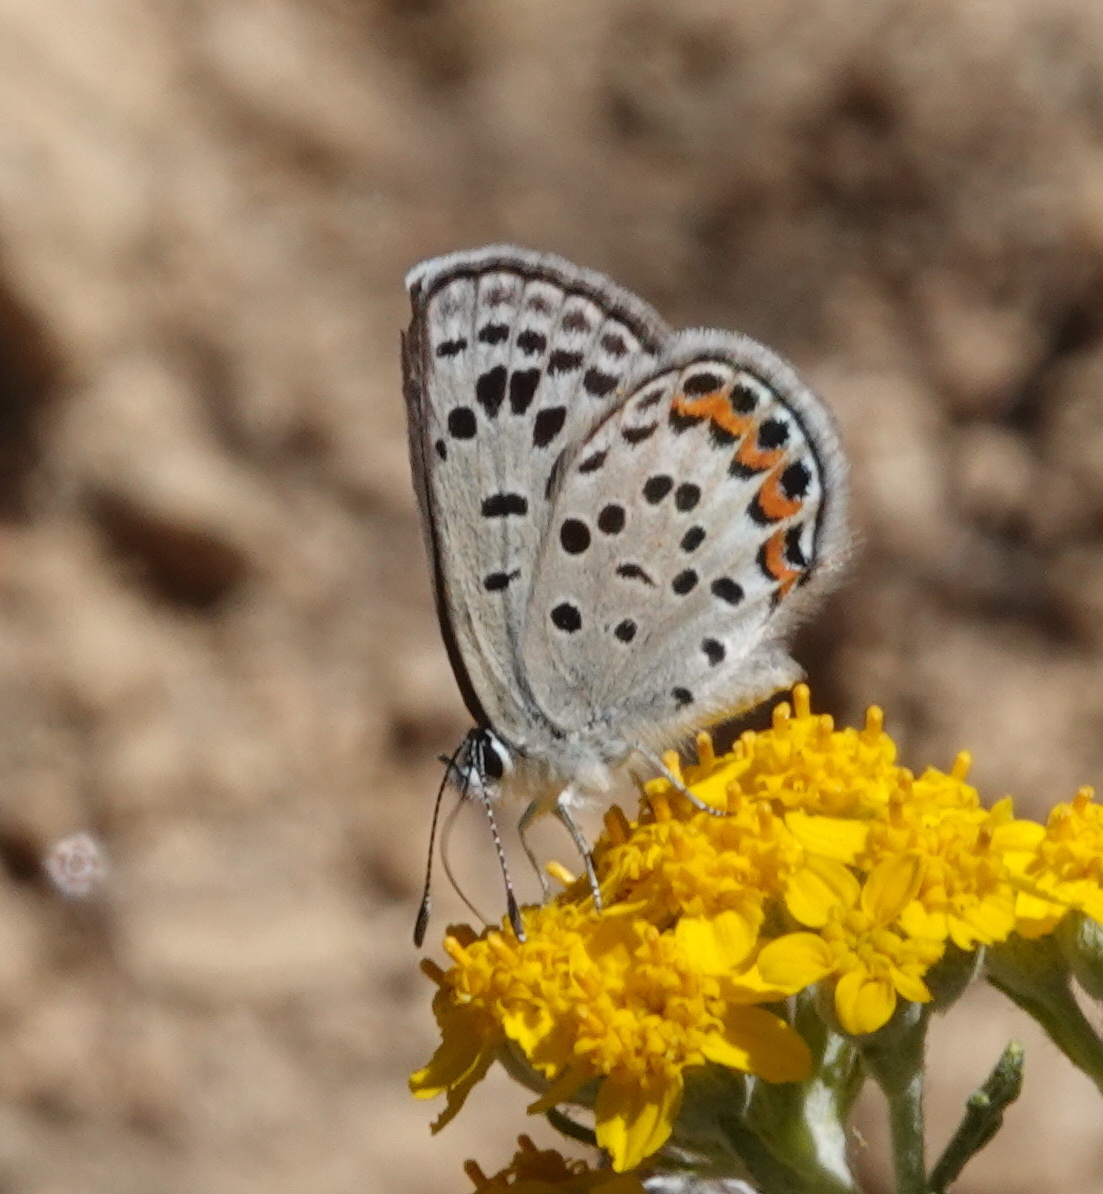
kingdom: Animalia
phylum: Arthropoda
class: Insecta
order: Lepidoptera
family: Lycaenidae
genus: Icaricia
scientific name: Icaricia acmon
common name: Acmon blue
